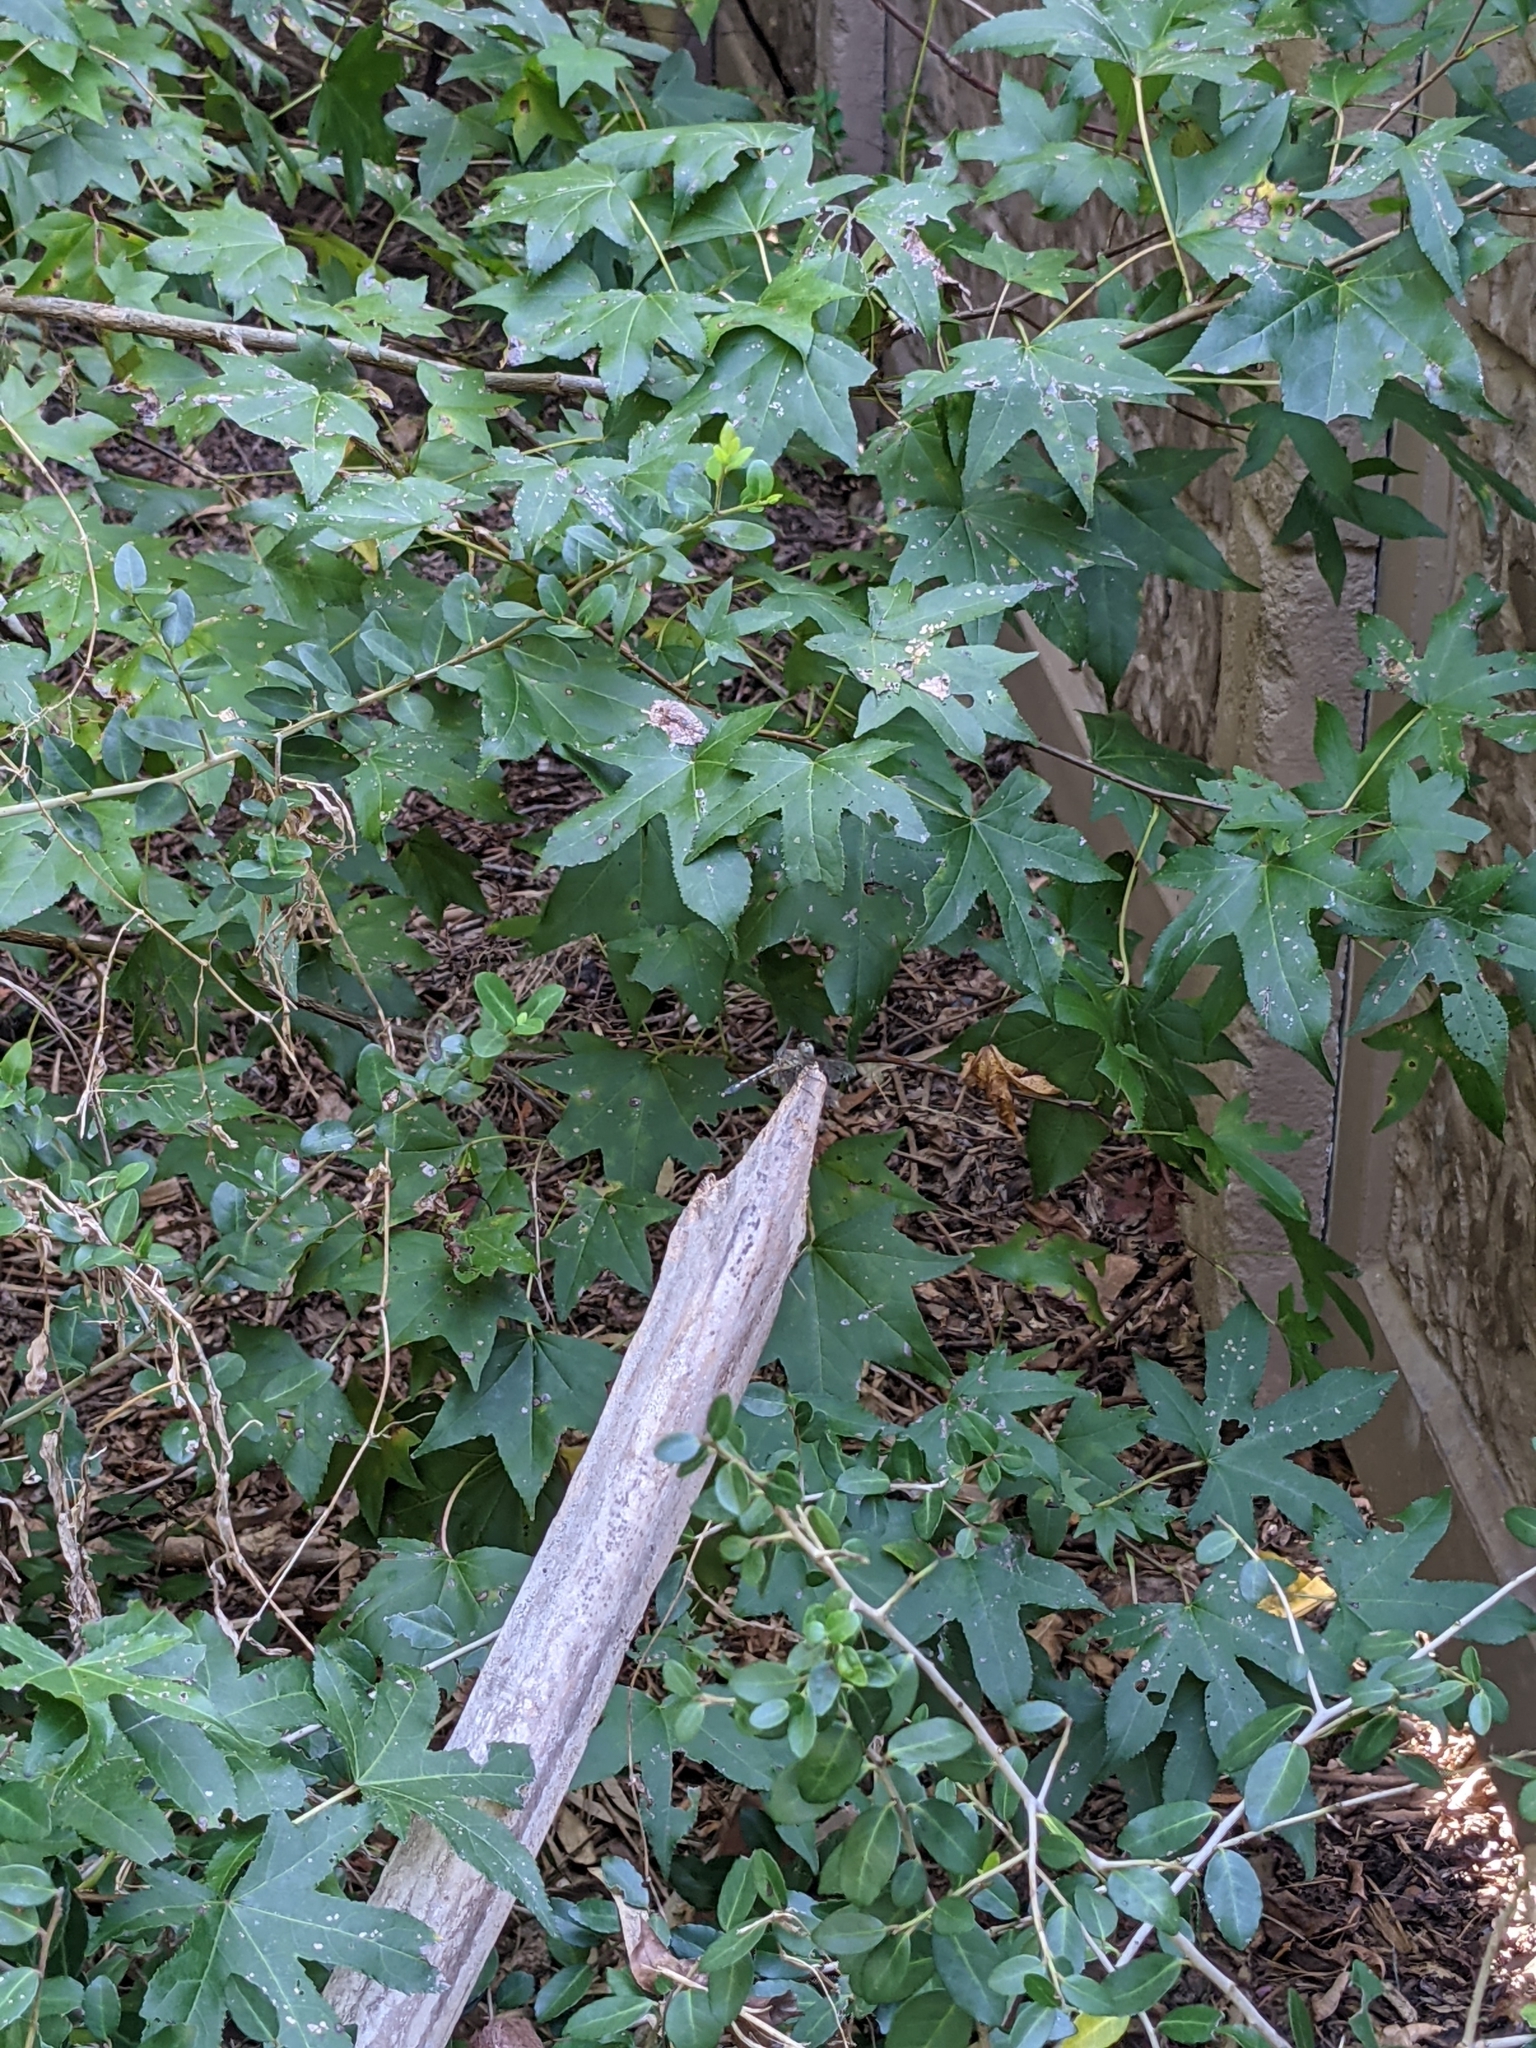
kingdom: Animalia
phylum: Arthropoda
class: Insecta
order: Odonata
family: Libellulidae
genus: Pachydiplax
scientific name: Pachydiplax longipennis
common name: Blue dasher
